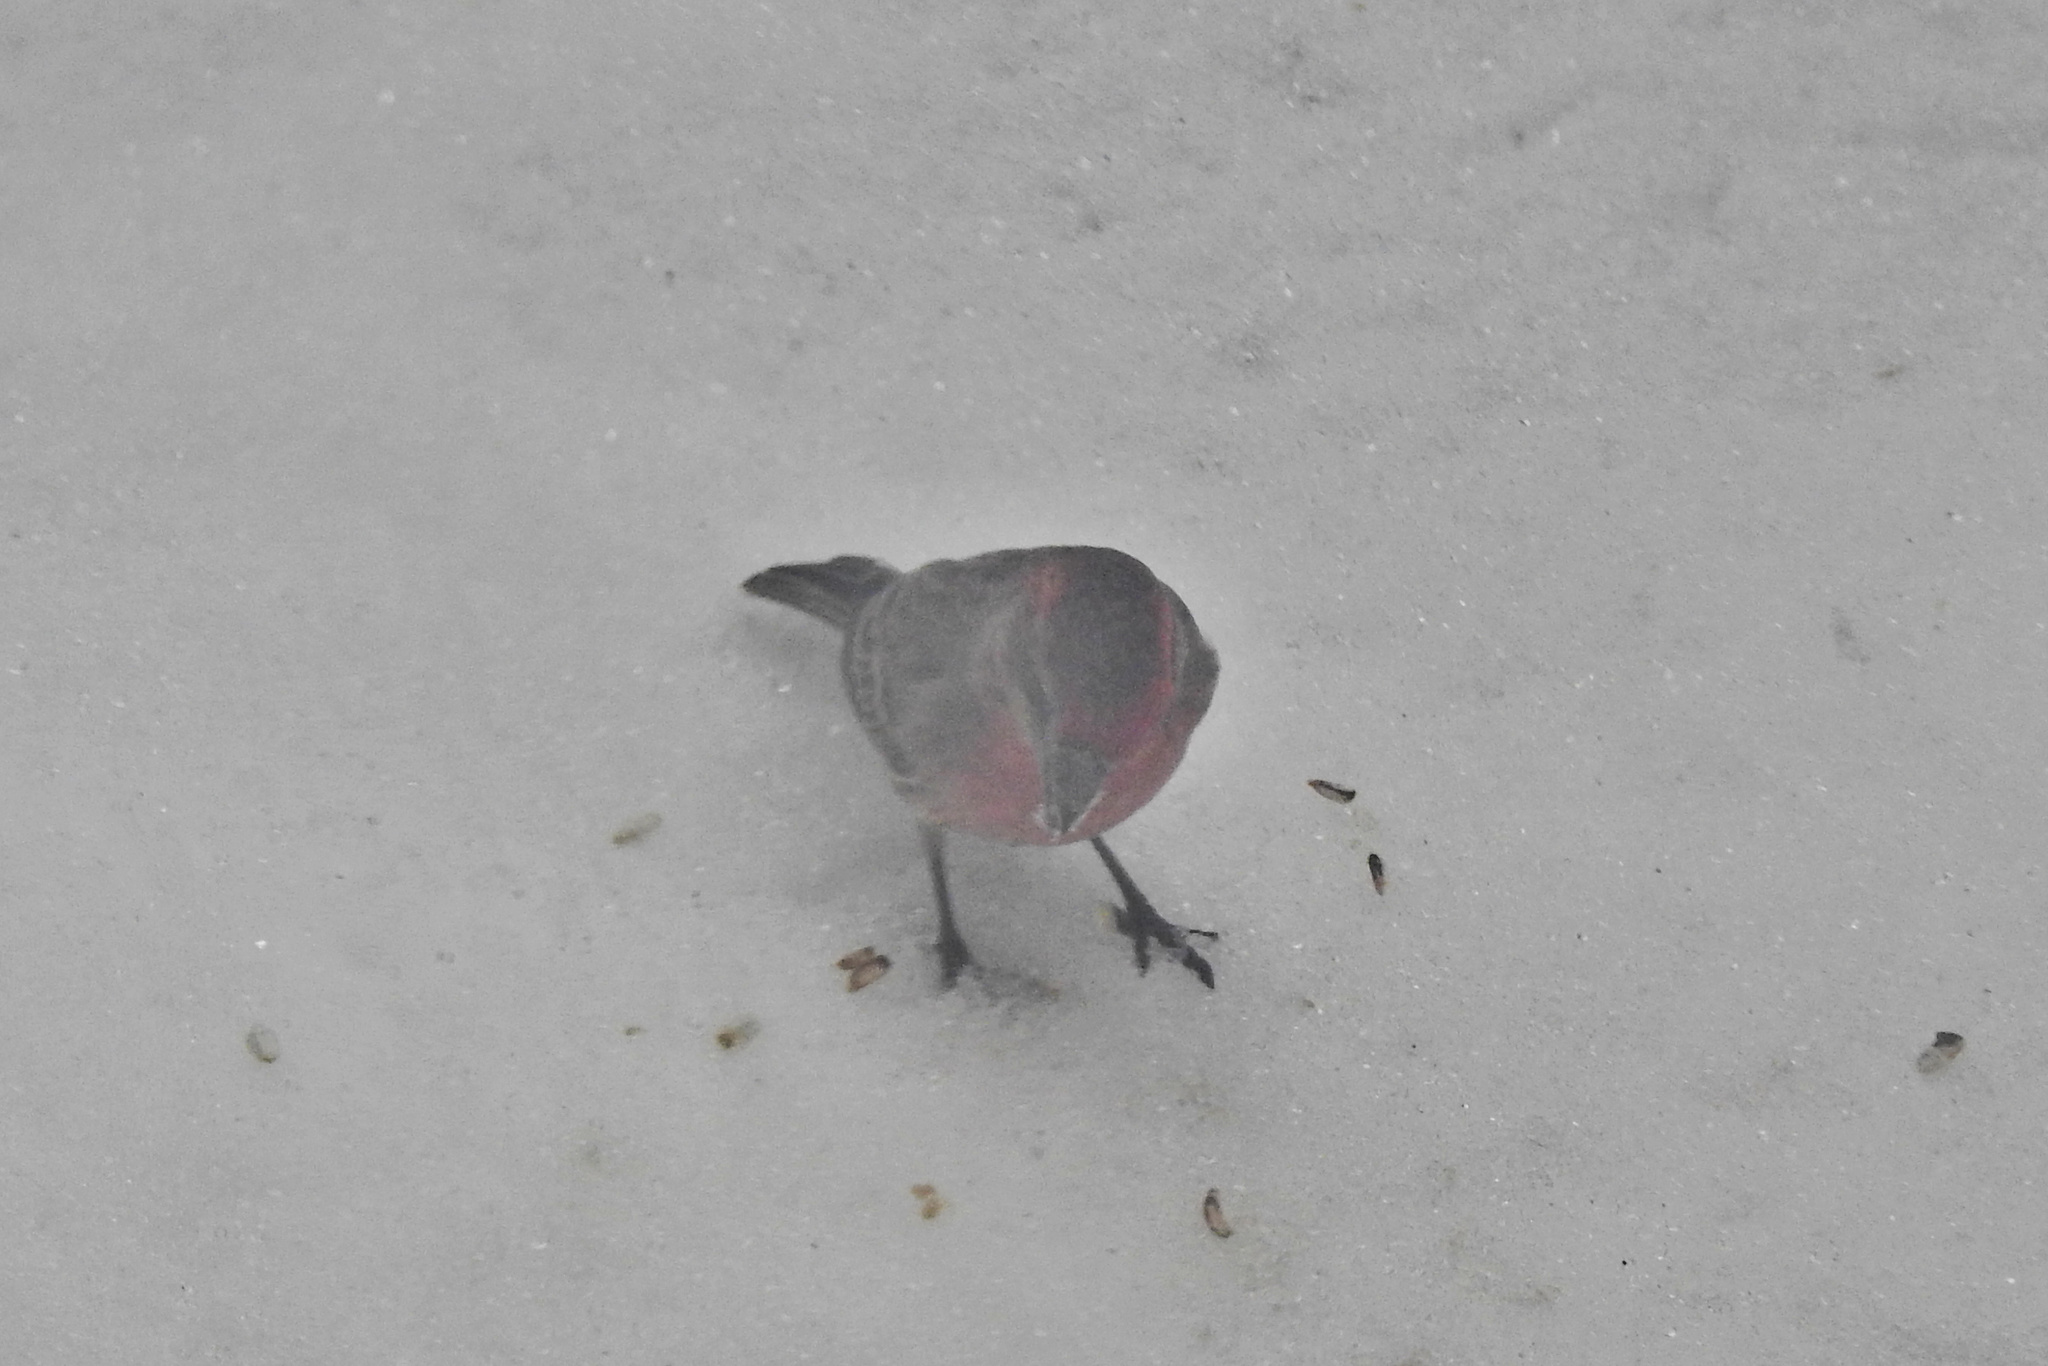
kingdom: Animalia
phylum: Chordata
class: Aves
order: Passeriformes
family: Fringillidae
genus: Haemorhous
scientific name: Haemorhous mexicanus
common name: House finch
